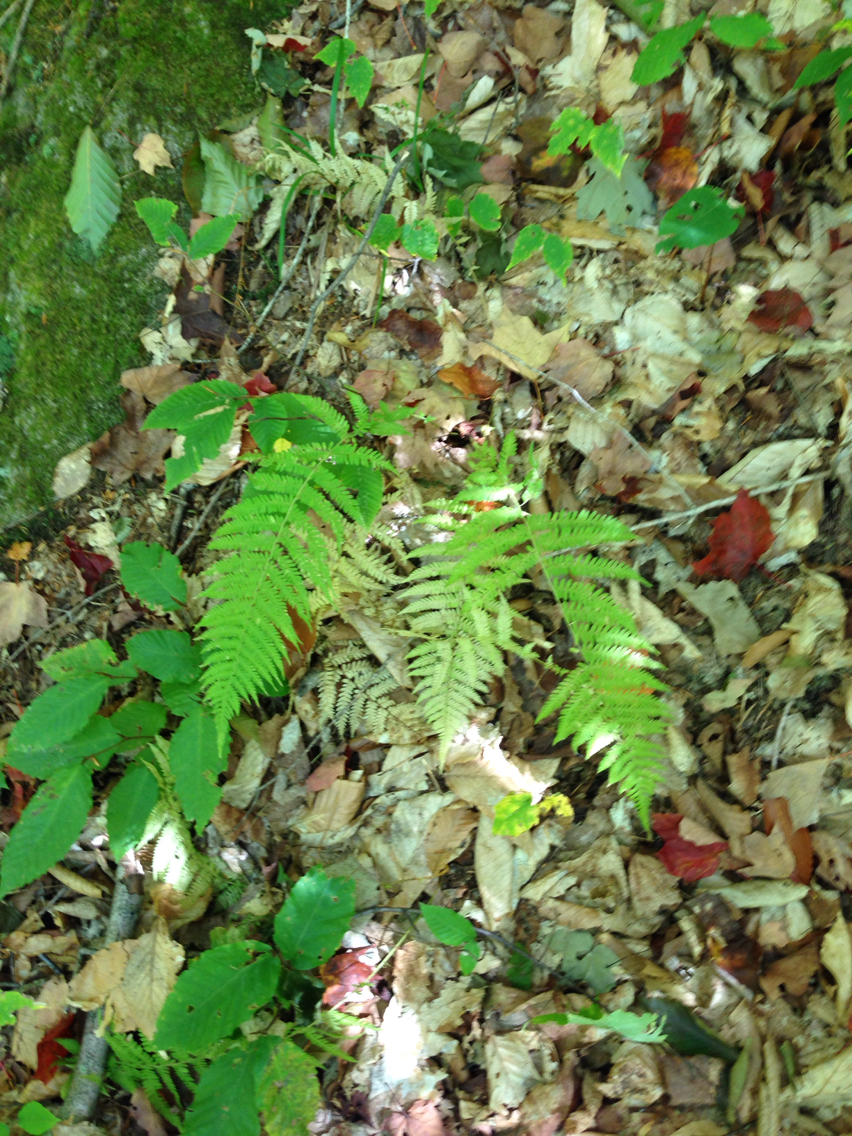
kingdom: Plantae
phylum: Tracheophyta
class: Polypodiopsida
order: Polypodiales
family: Thelypteridaceae
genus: Amauropelta
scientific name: Amauropelta noveboracensis
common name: New york fern
